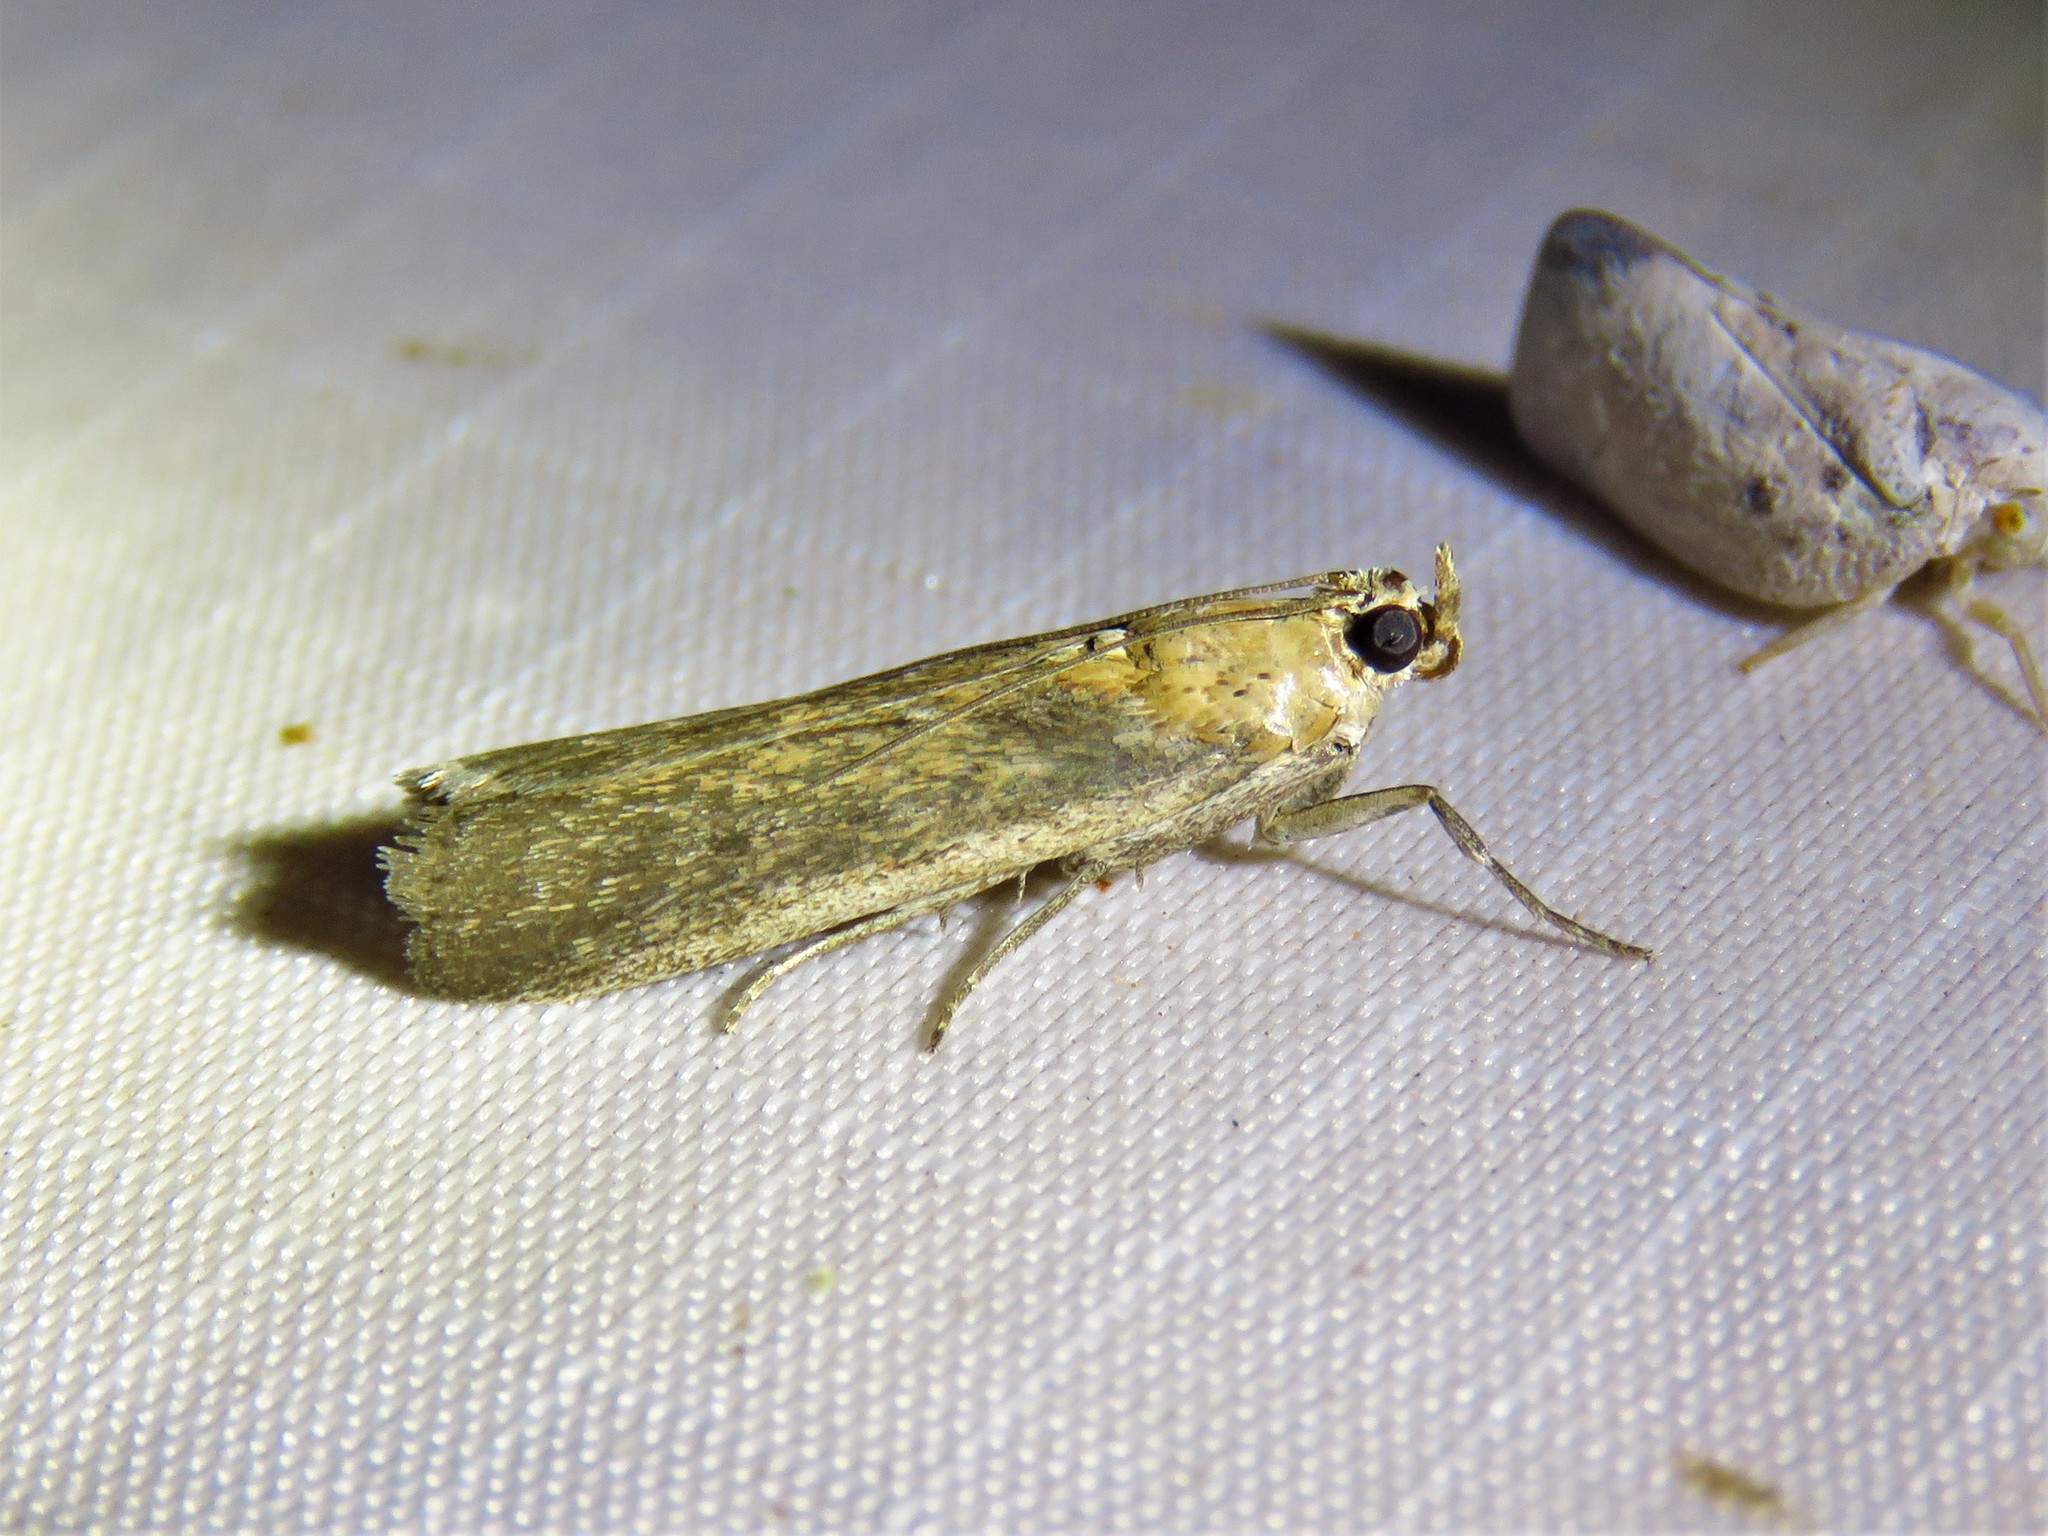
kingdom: Animalia
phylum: Arthropoda
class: Insecta
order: Lepidoptera
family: Pyralidae
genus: Stylopalpia
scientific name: Stylopalpia scobiella
